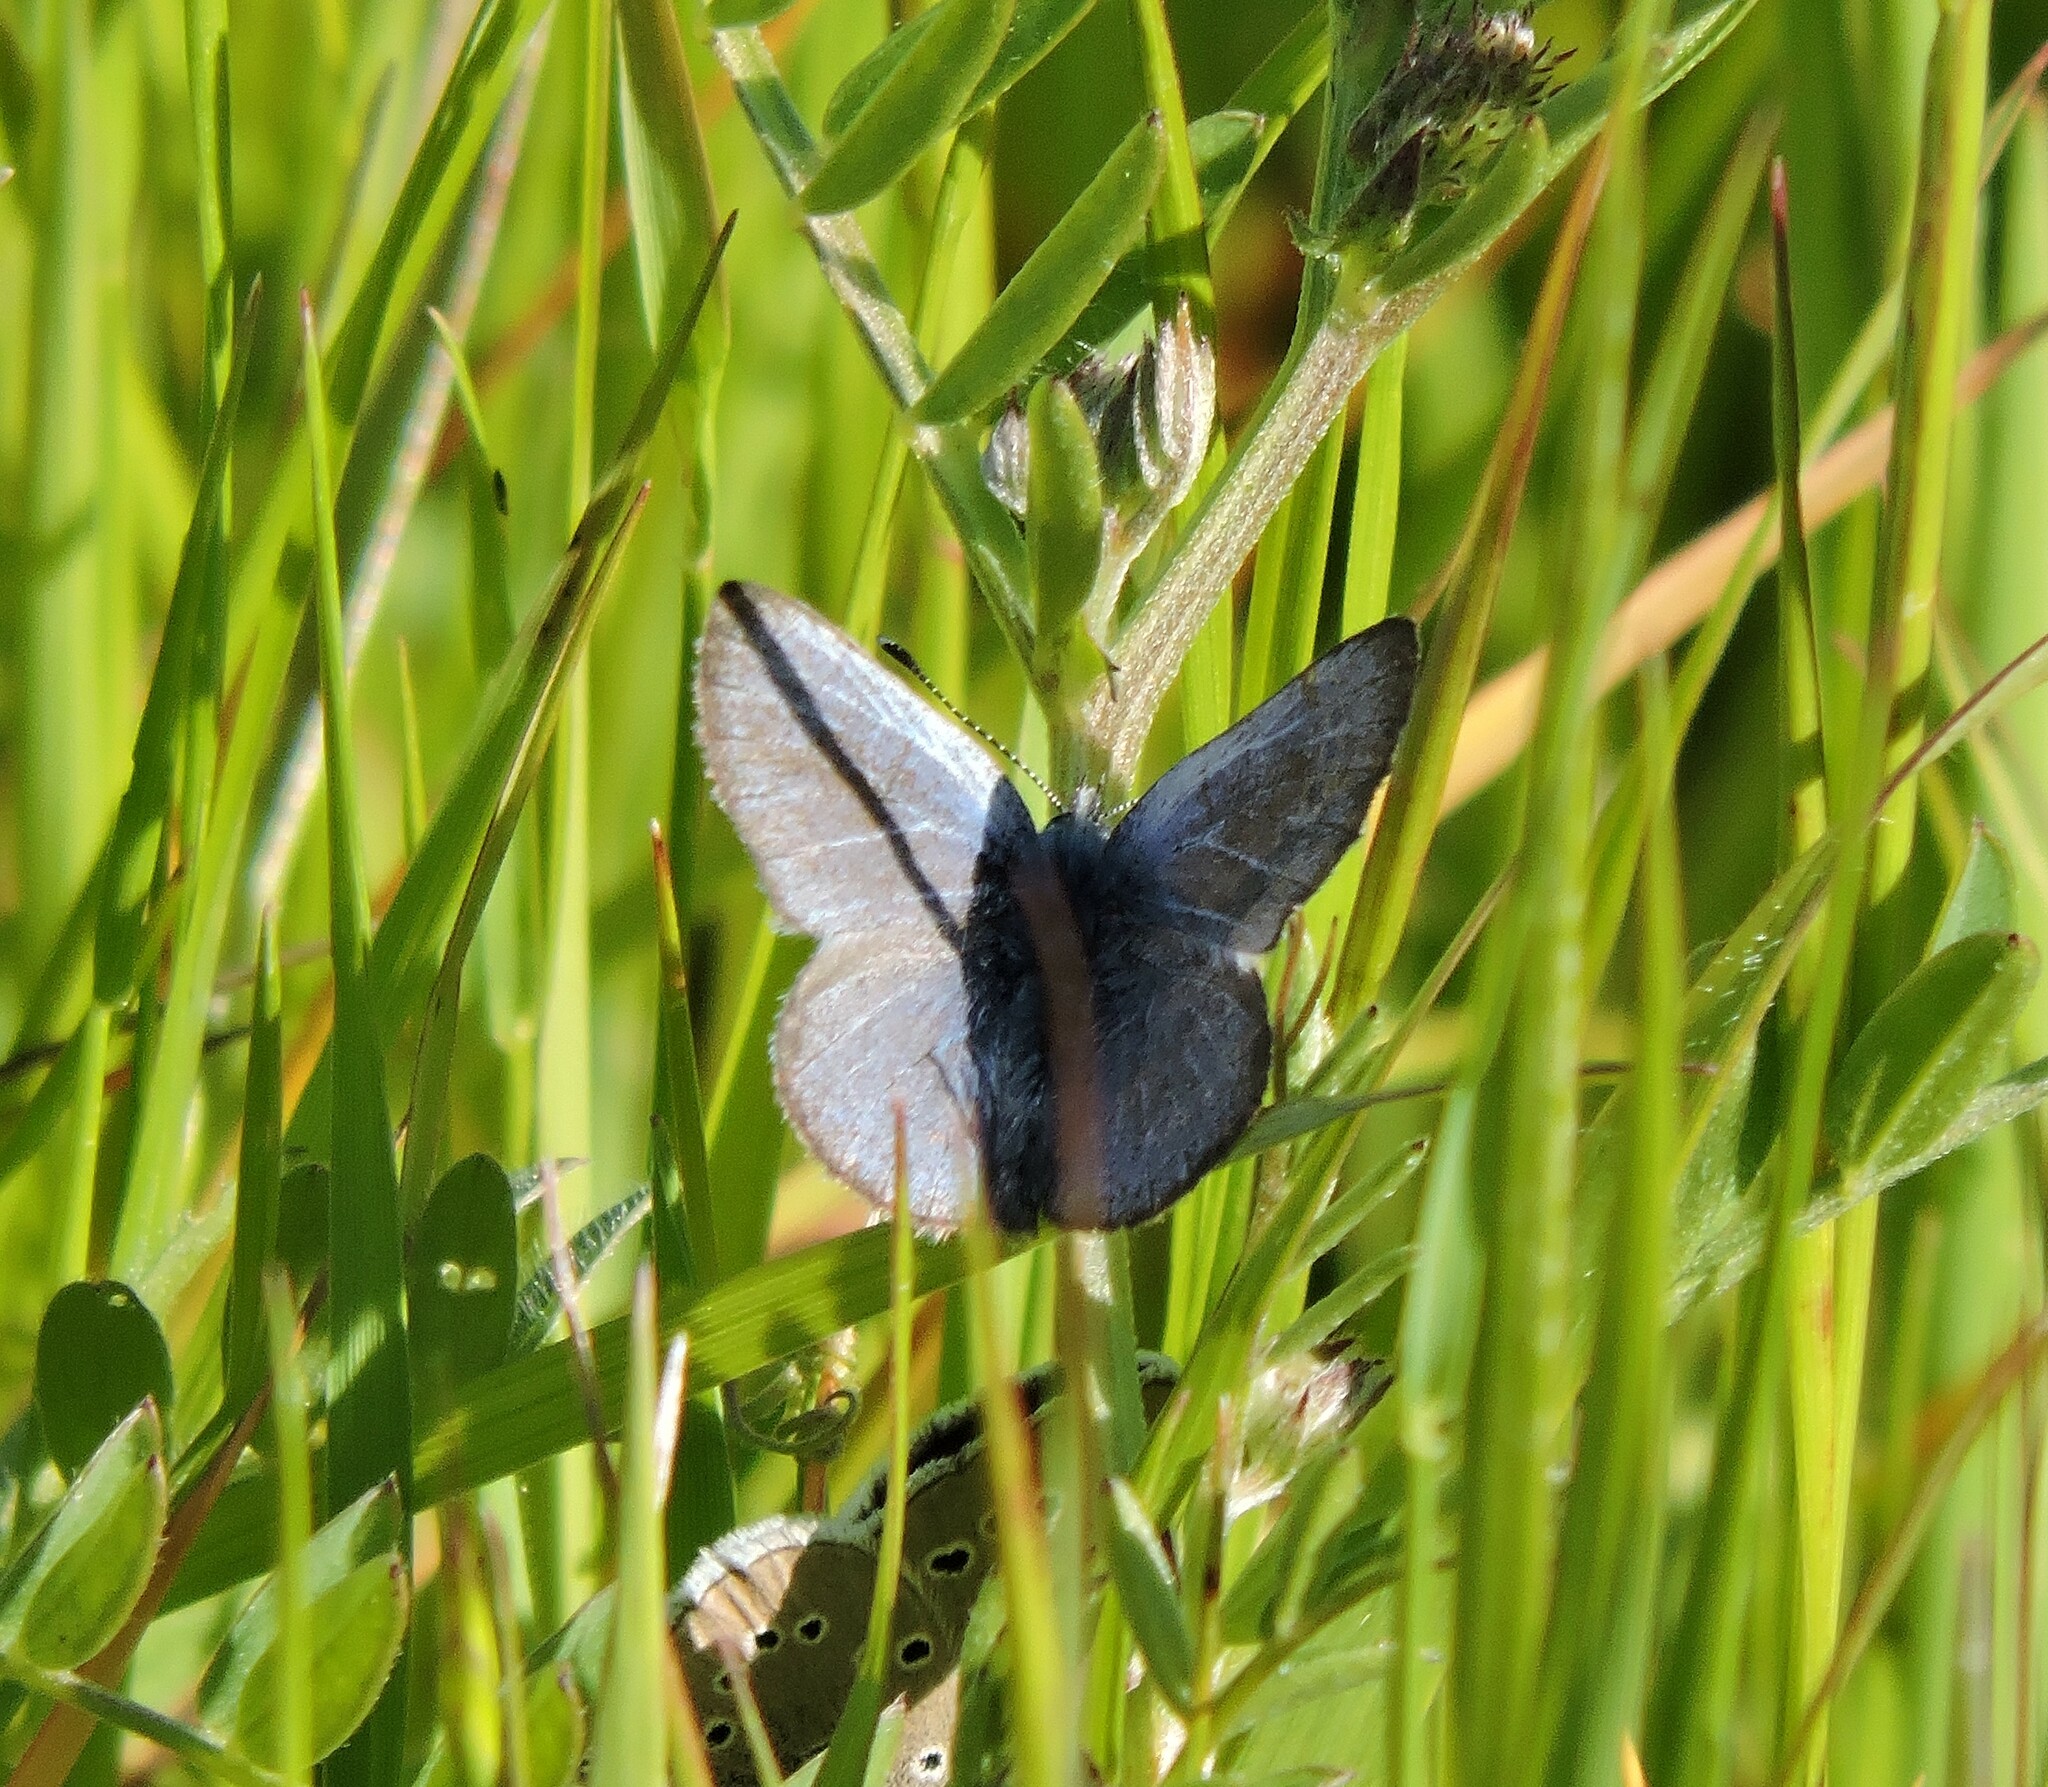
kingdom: Animalia
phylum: Arthropoda
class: Insecta
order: Lepidoptera
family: Lycaenidae
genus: Glaucopsyche
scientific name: Glaucopsyche lygdamus
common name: Silvery blue
